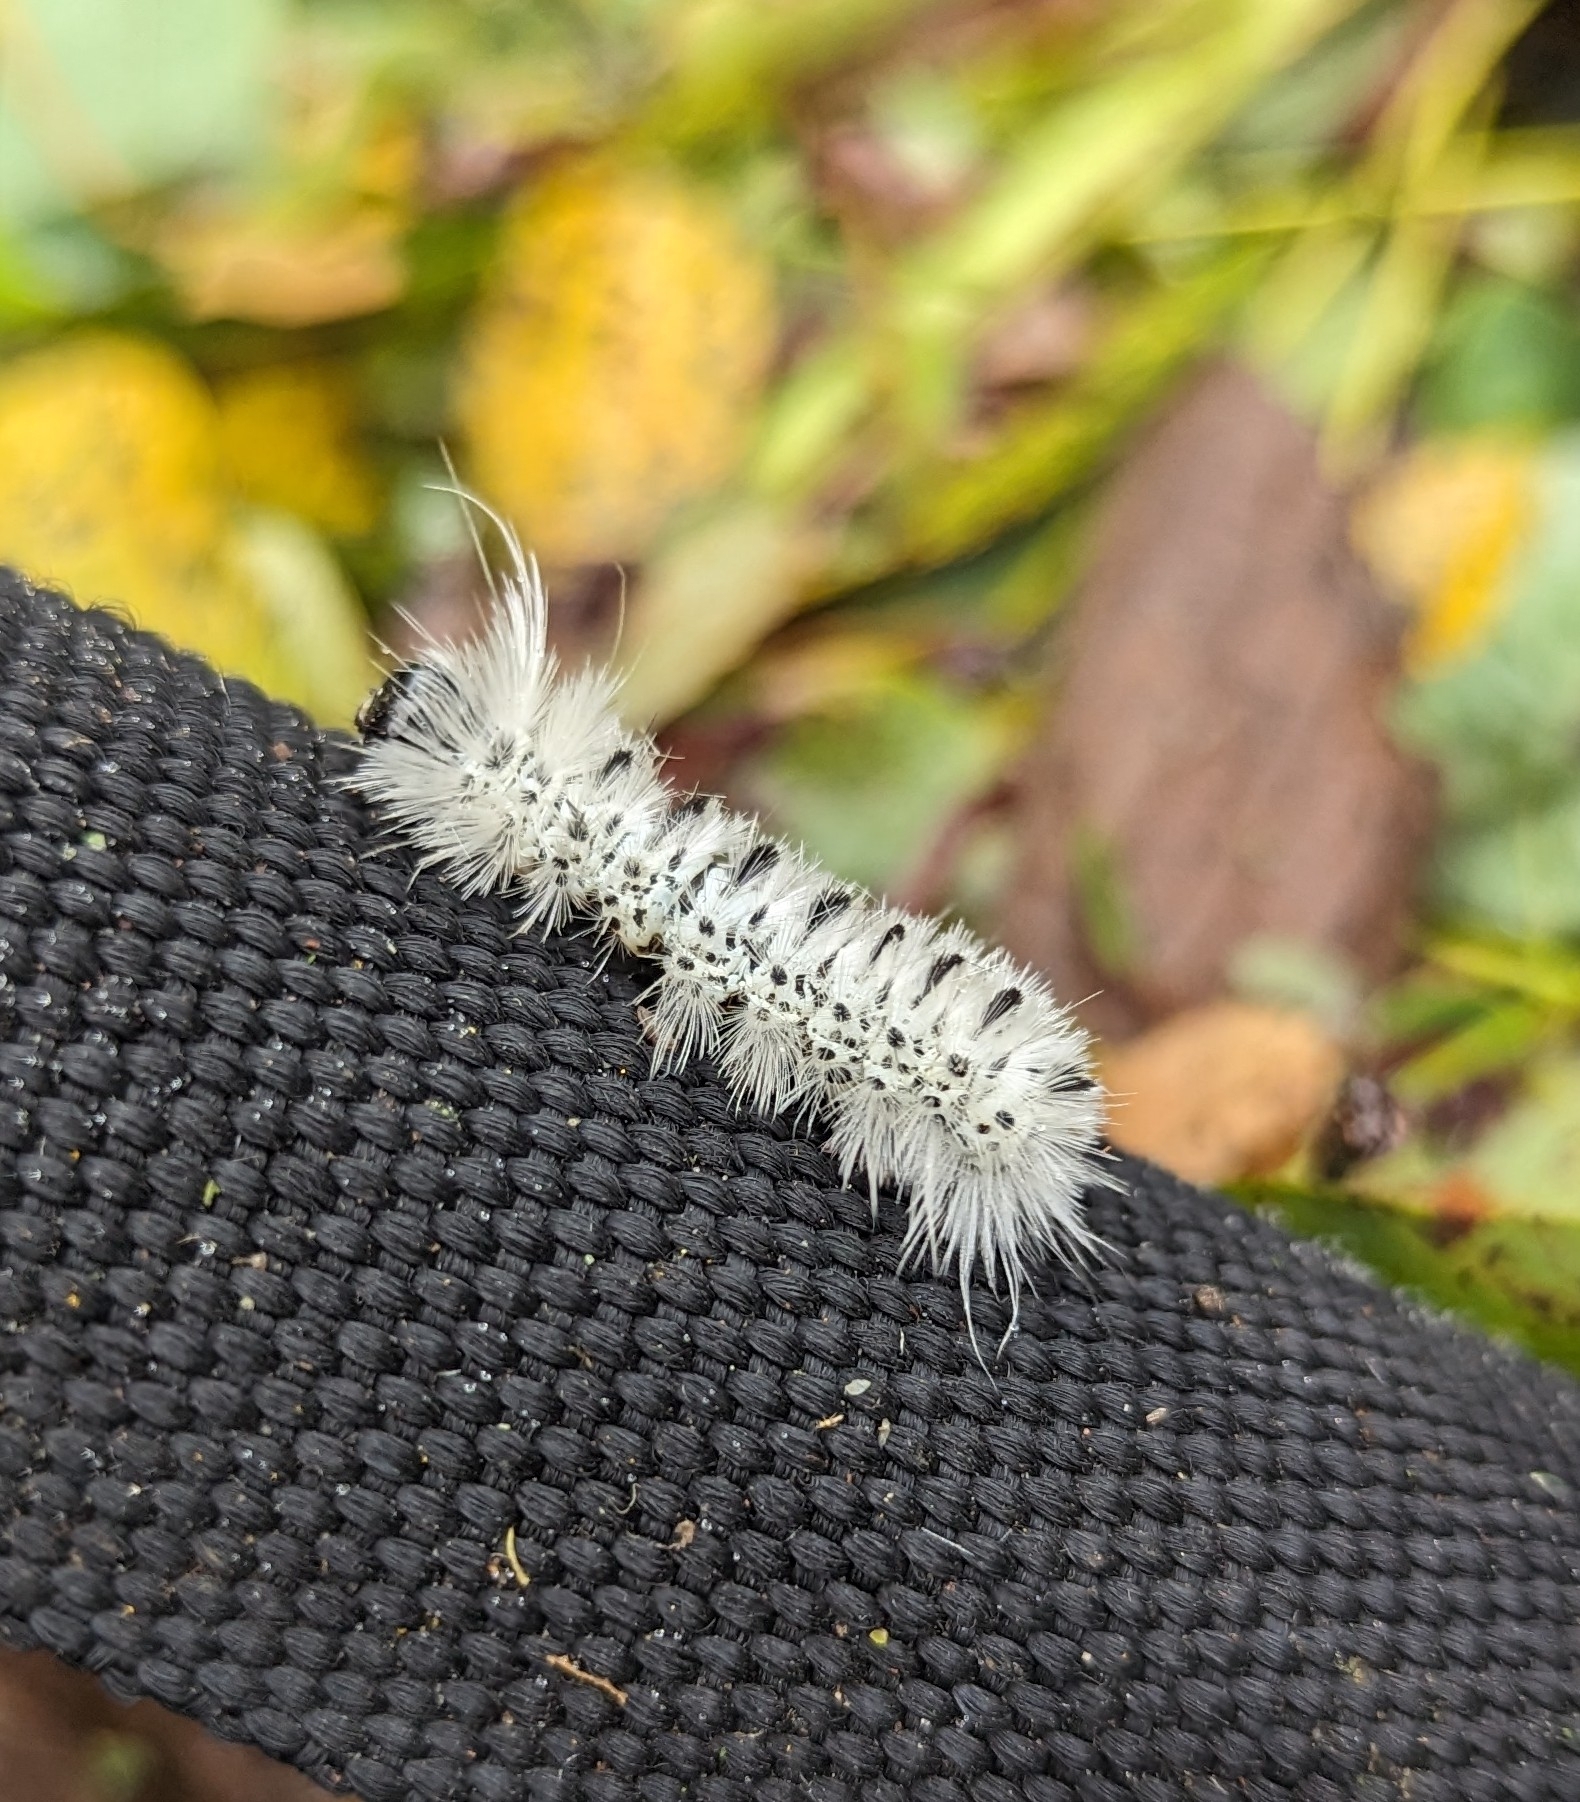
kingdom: Animalia
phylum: Arthropoda
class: Insecta
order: Lepidoptera
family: Erebidae
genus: Lophocampa
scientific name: Lophocampa caryae
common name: Hickory tussock moth
